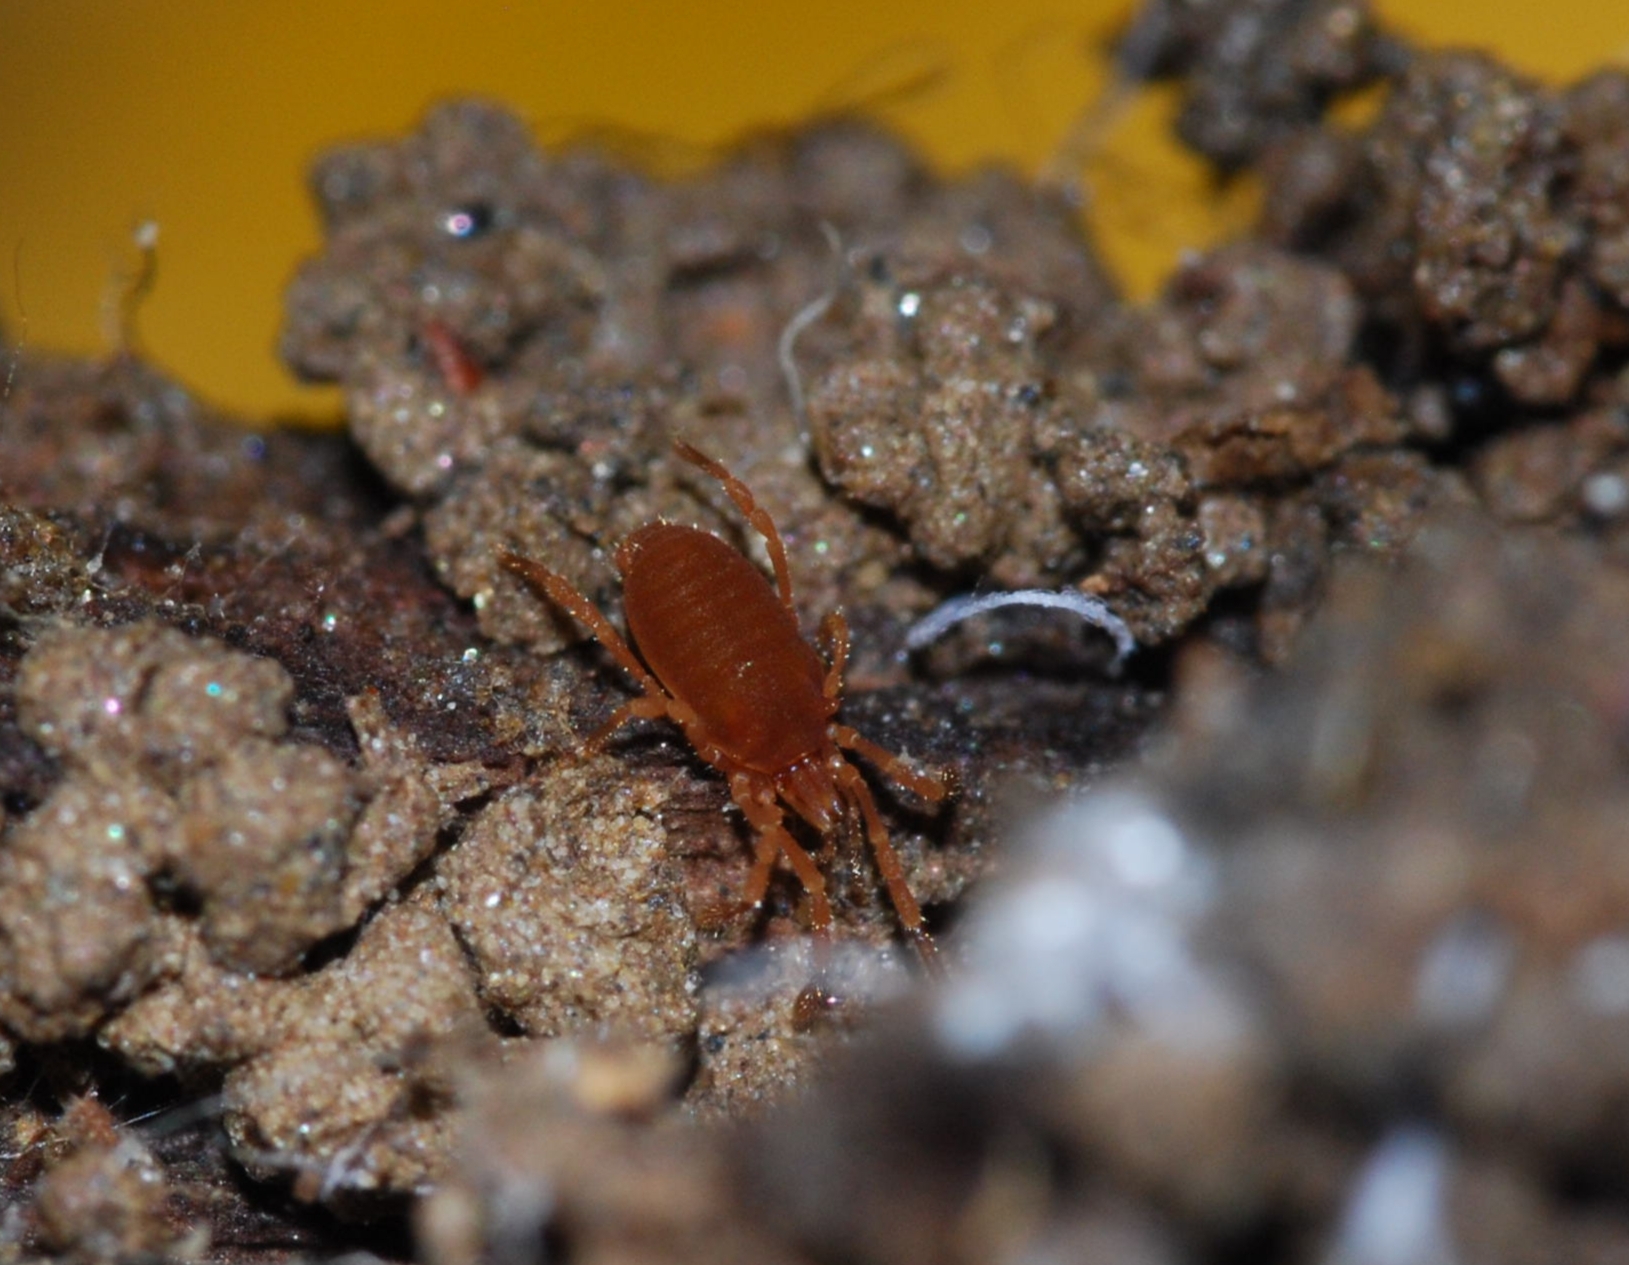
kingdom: Animalia
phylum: Arthropoda
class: Arachnida
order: Opiliones
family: Sironidae
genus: Siro
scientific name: Siro rubens
